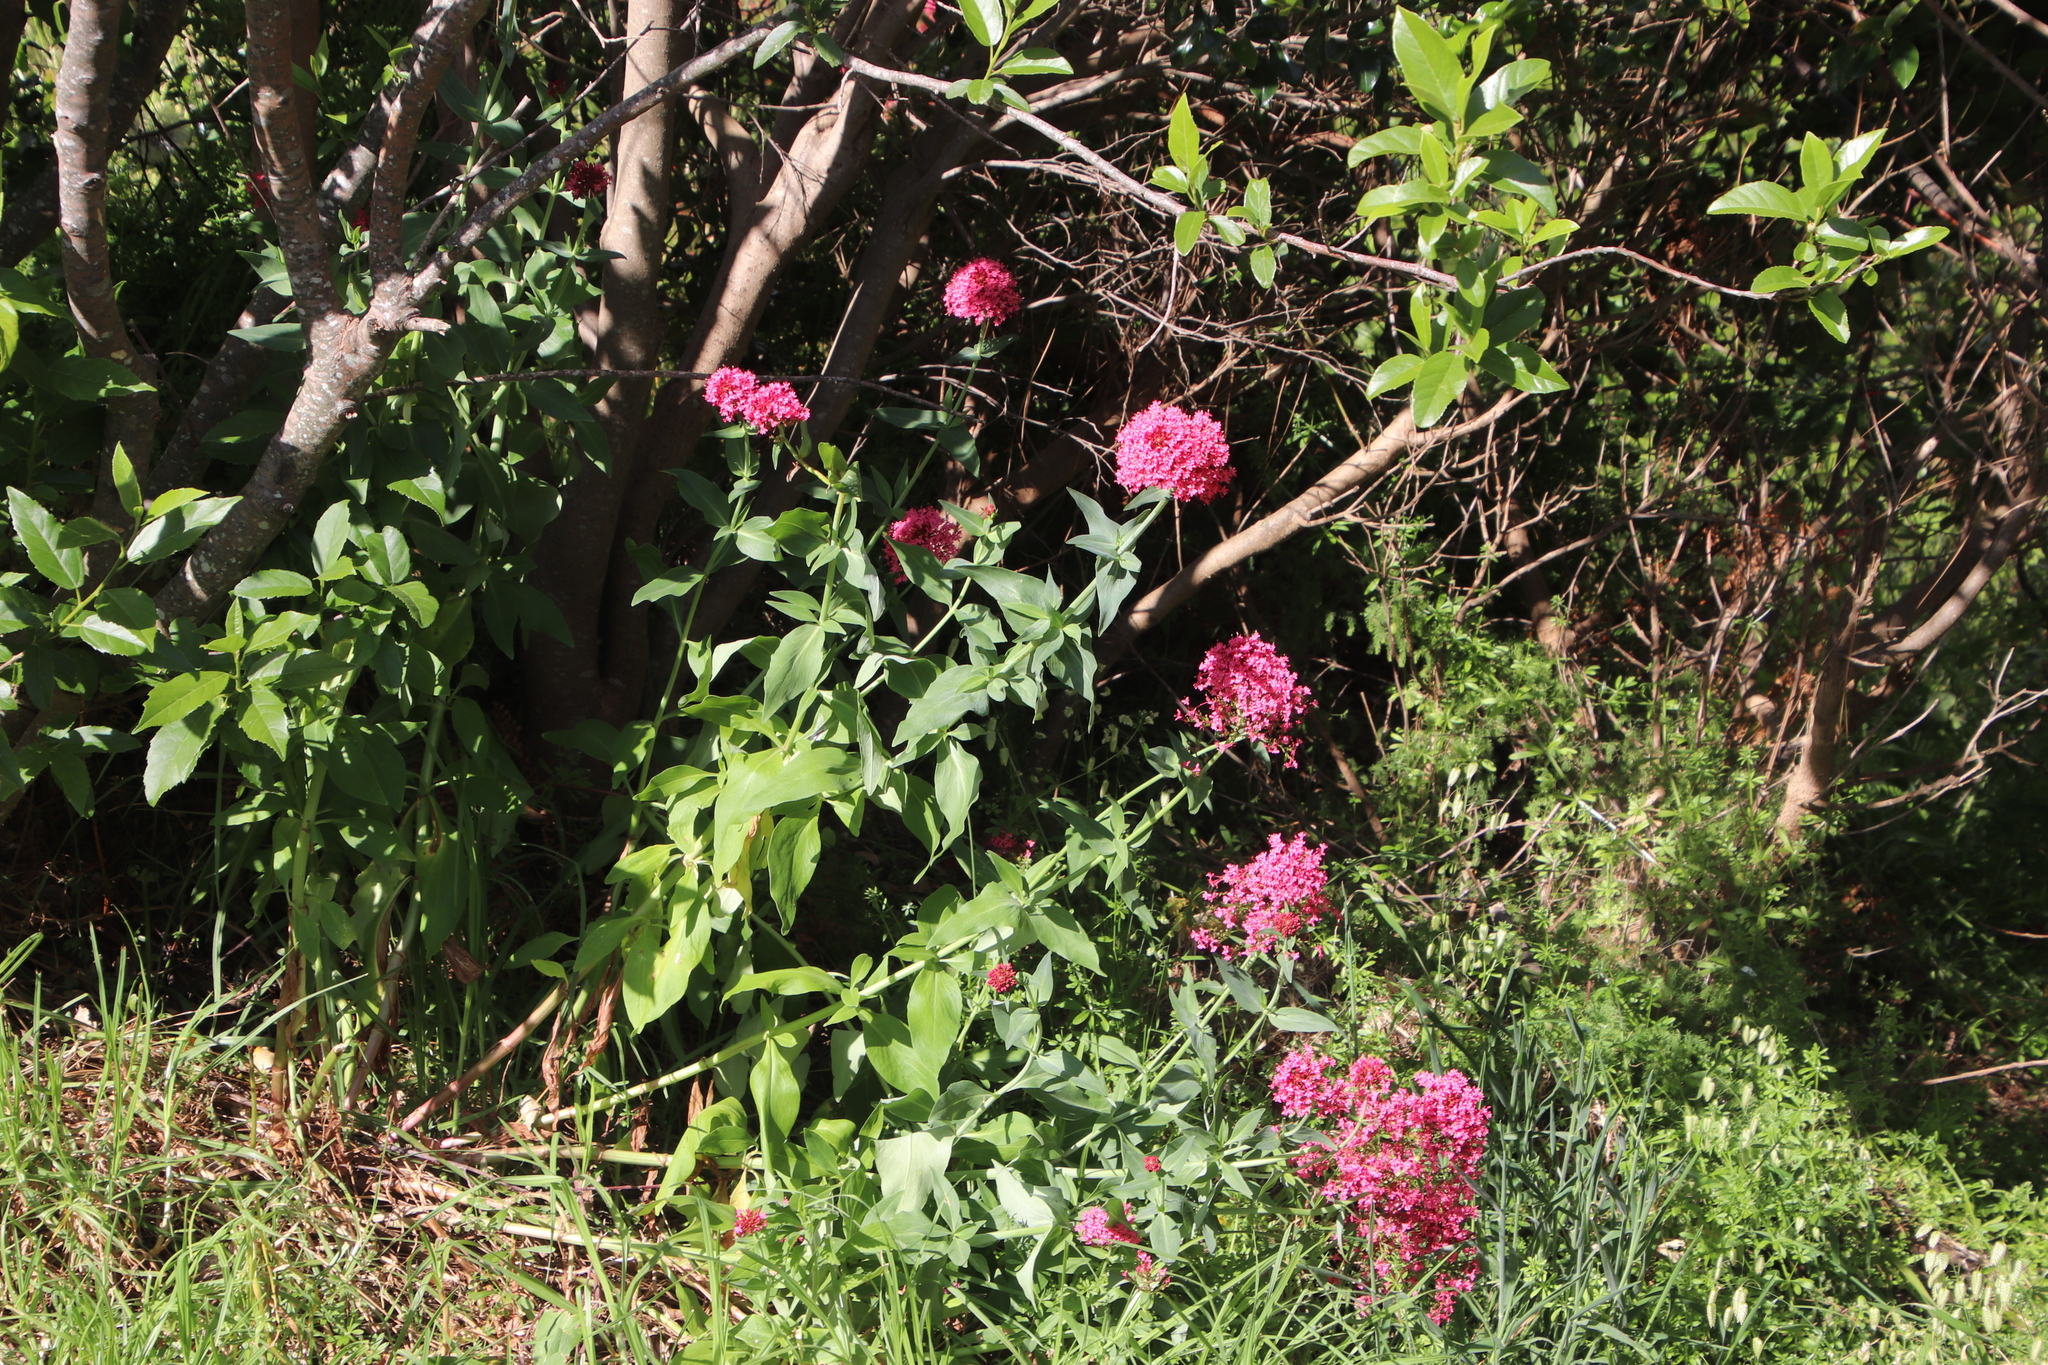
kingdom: Plantae
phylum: Tracheophyta
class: Magnoliopsida
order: Dipsacales
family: Caprifoliaceae
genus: Centranthus
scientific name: Centranthus ruber
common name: Red valerian
